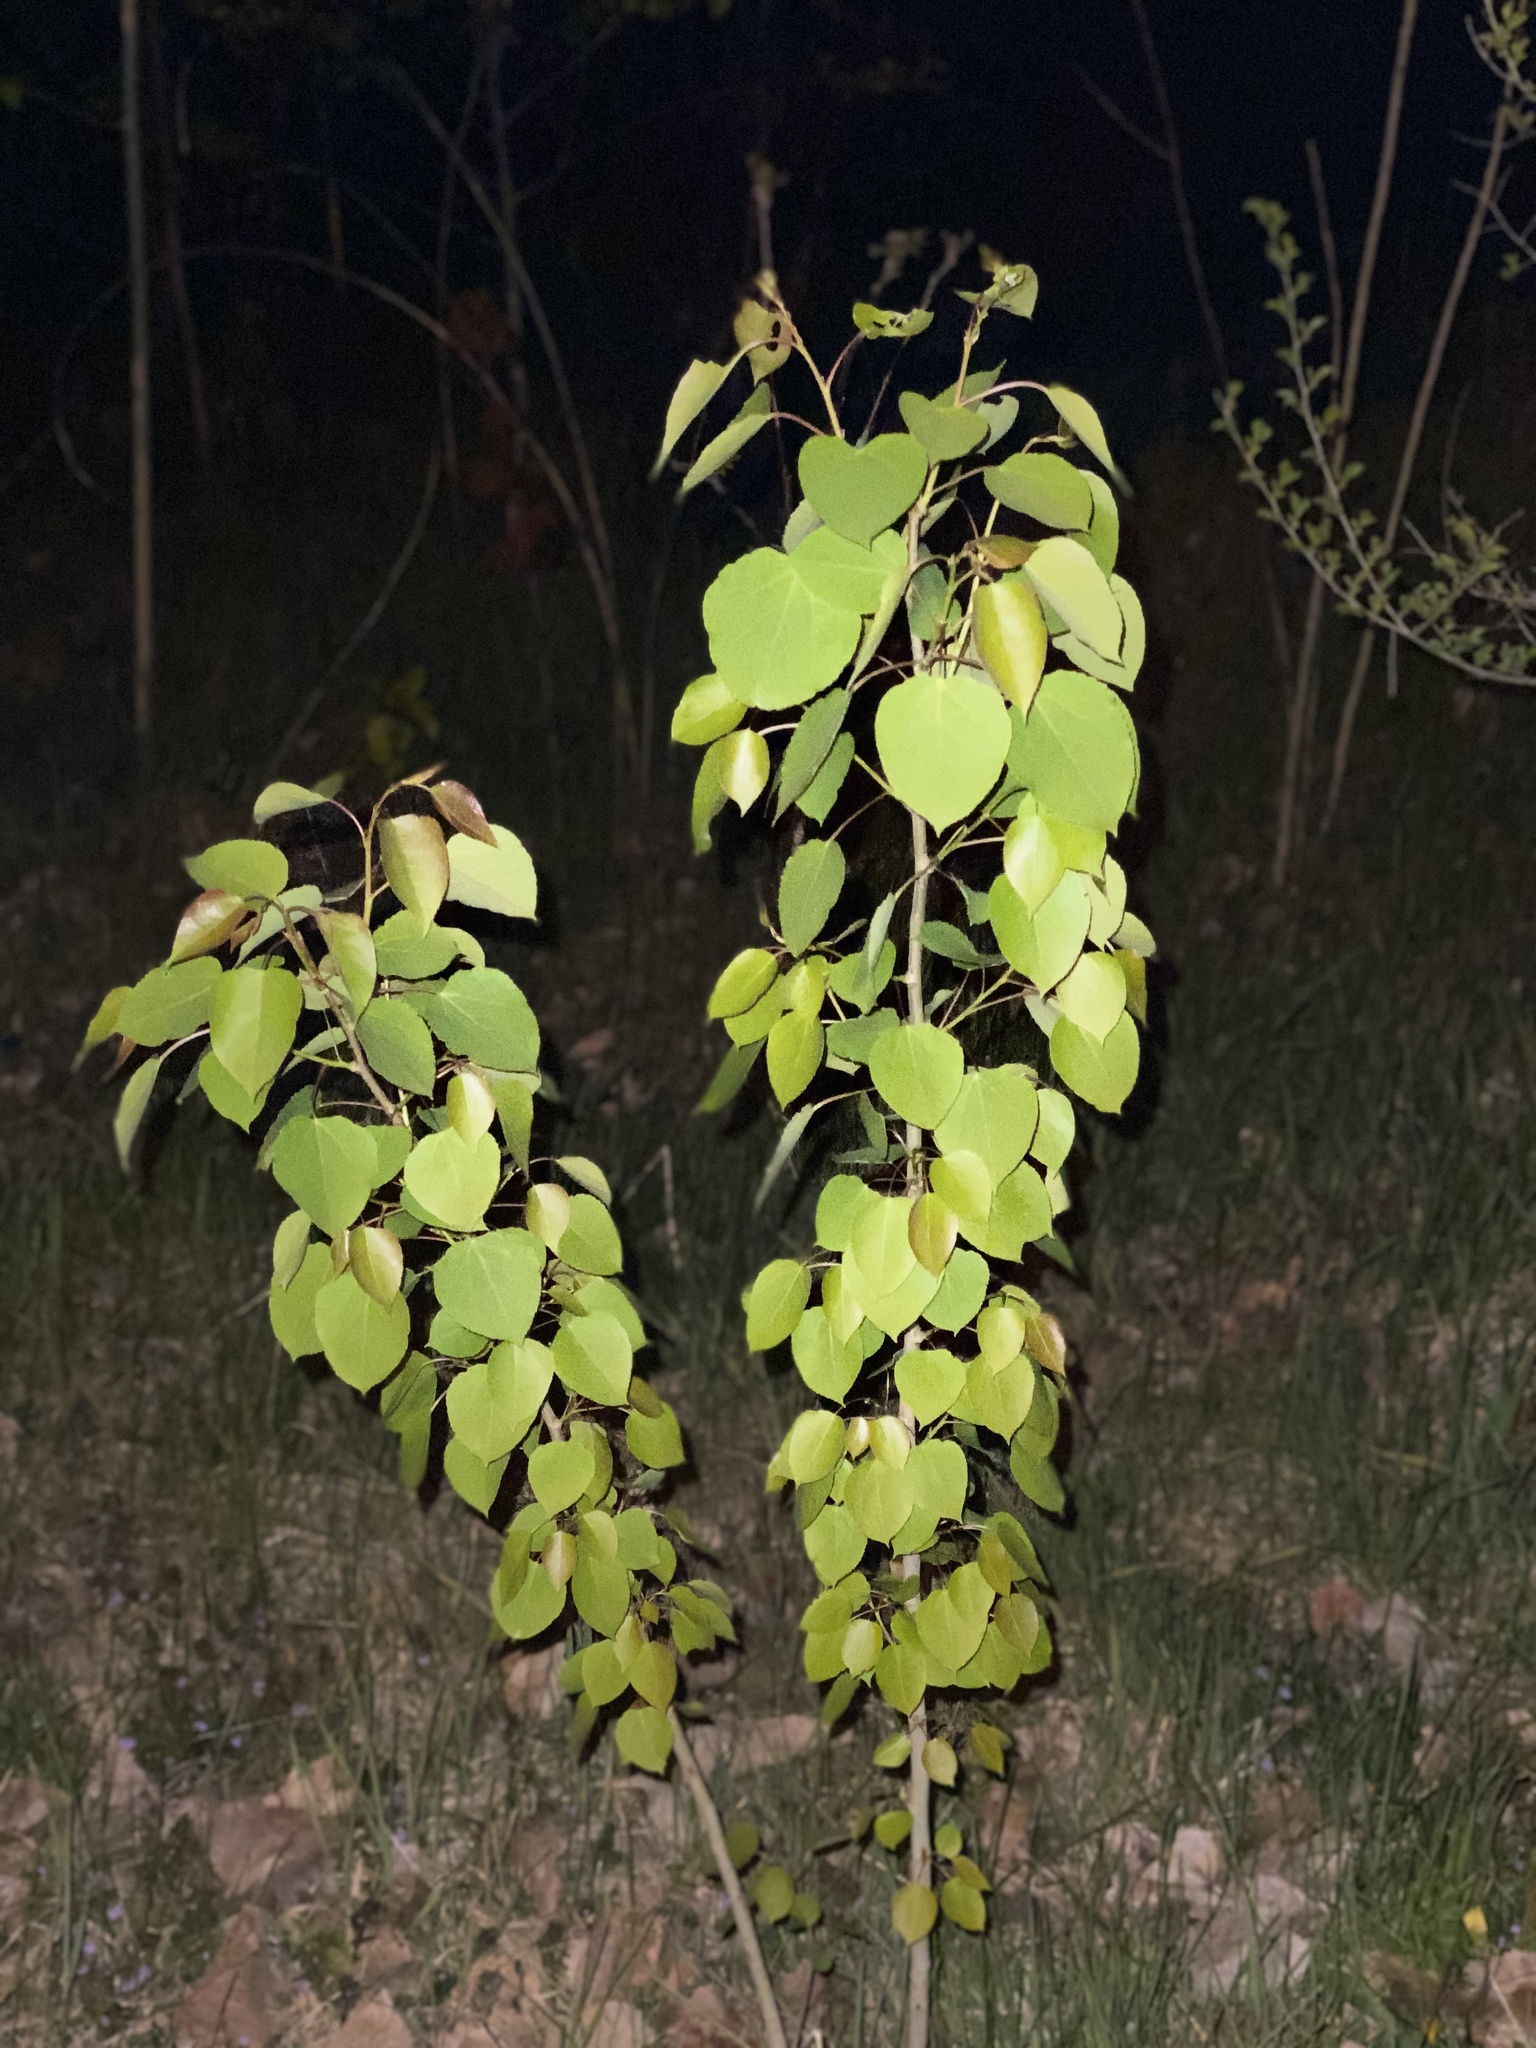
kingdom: Plantae
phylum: Tracheophyta
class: Magnoliopsida
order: Malpighiales
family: Salicaceae
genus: Populus
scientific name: Populus tremuloides
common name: Quaking aspen
